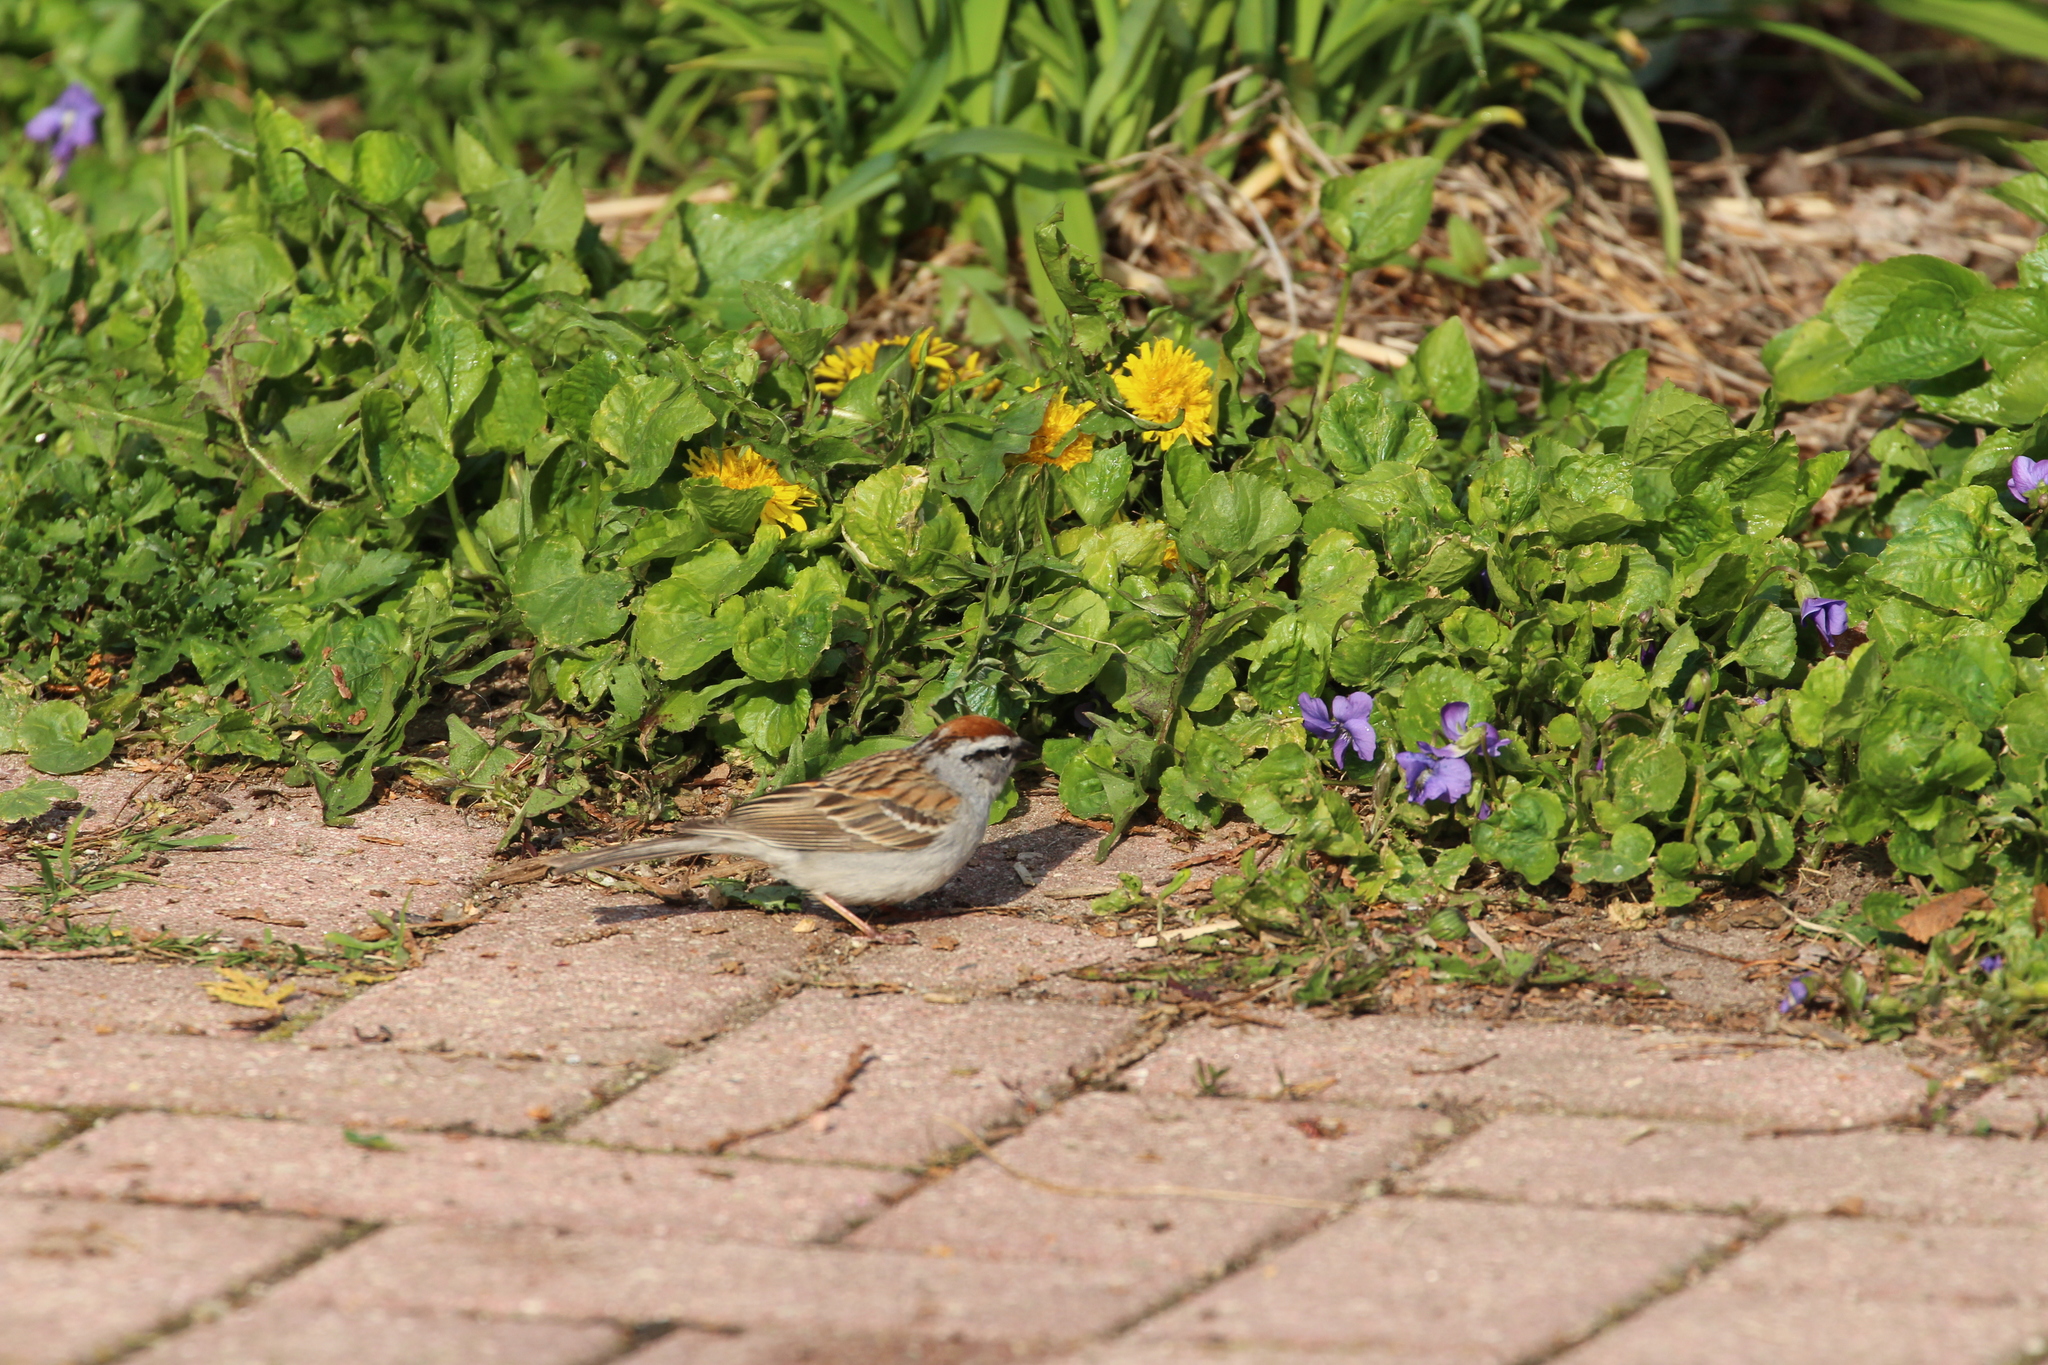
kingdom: Animalia
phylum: Chordata
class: Aves
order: Passeriformes
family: Passerellidae
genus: Spizella
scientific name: Spizella passerina
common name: Chipping sparrow
